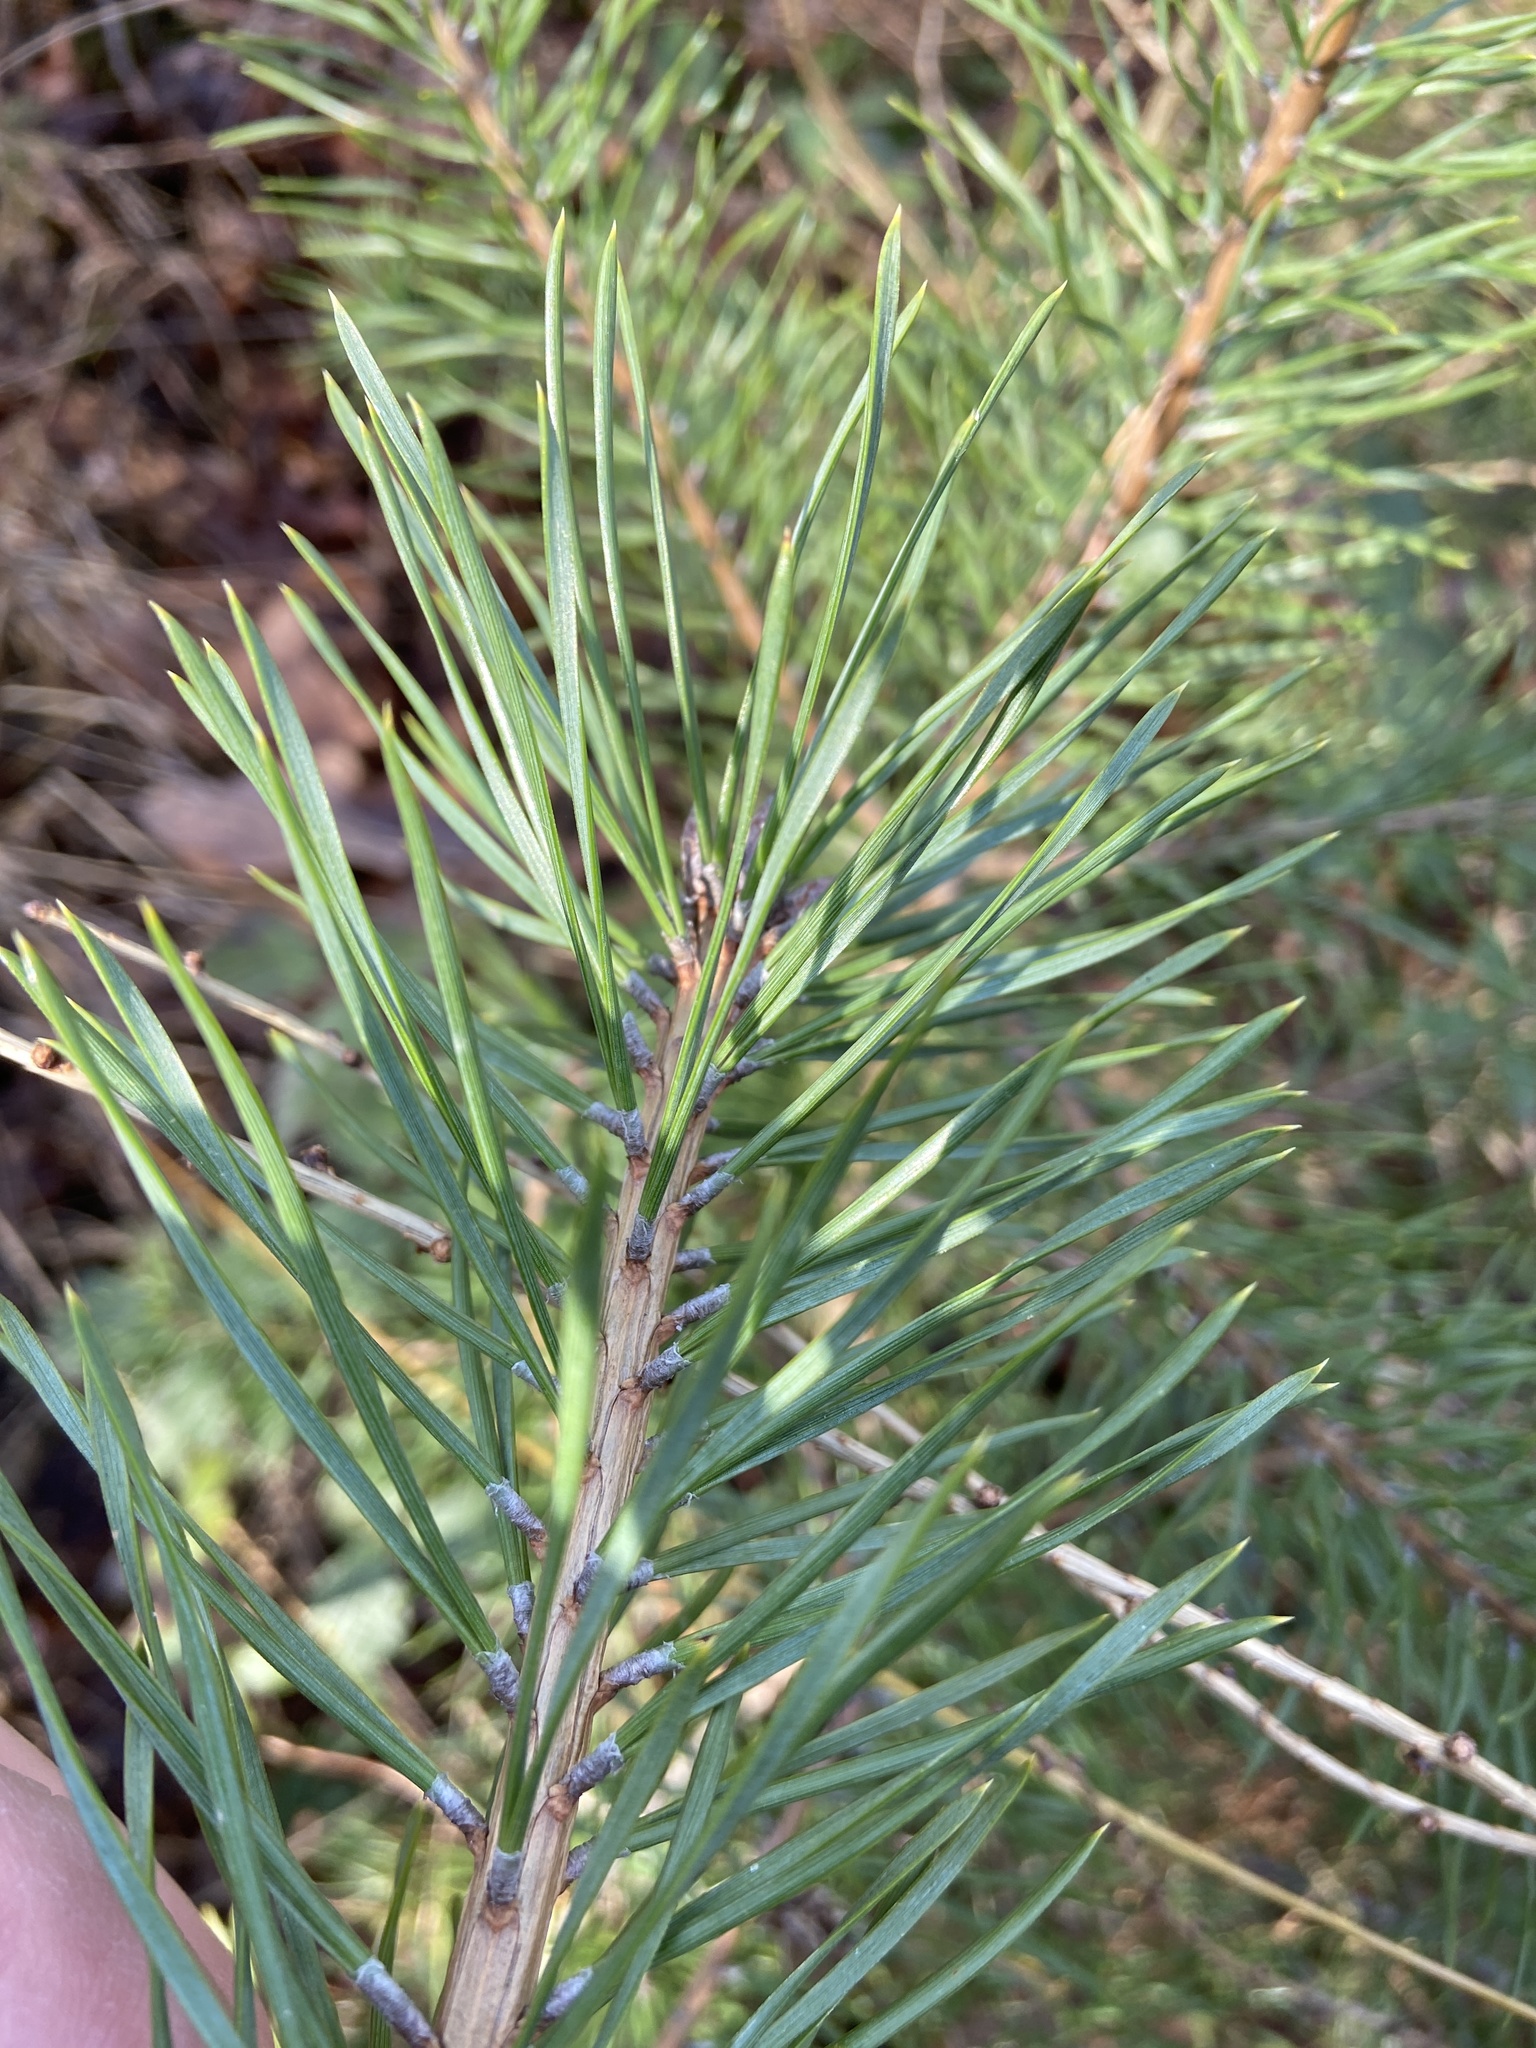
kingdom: Plantae
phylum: Tracheophyta
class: Pinopsida
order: Pinales
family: Pinaceae
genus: Pinus
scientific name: Pinus sylvestris
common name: Scots pine
